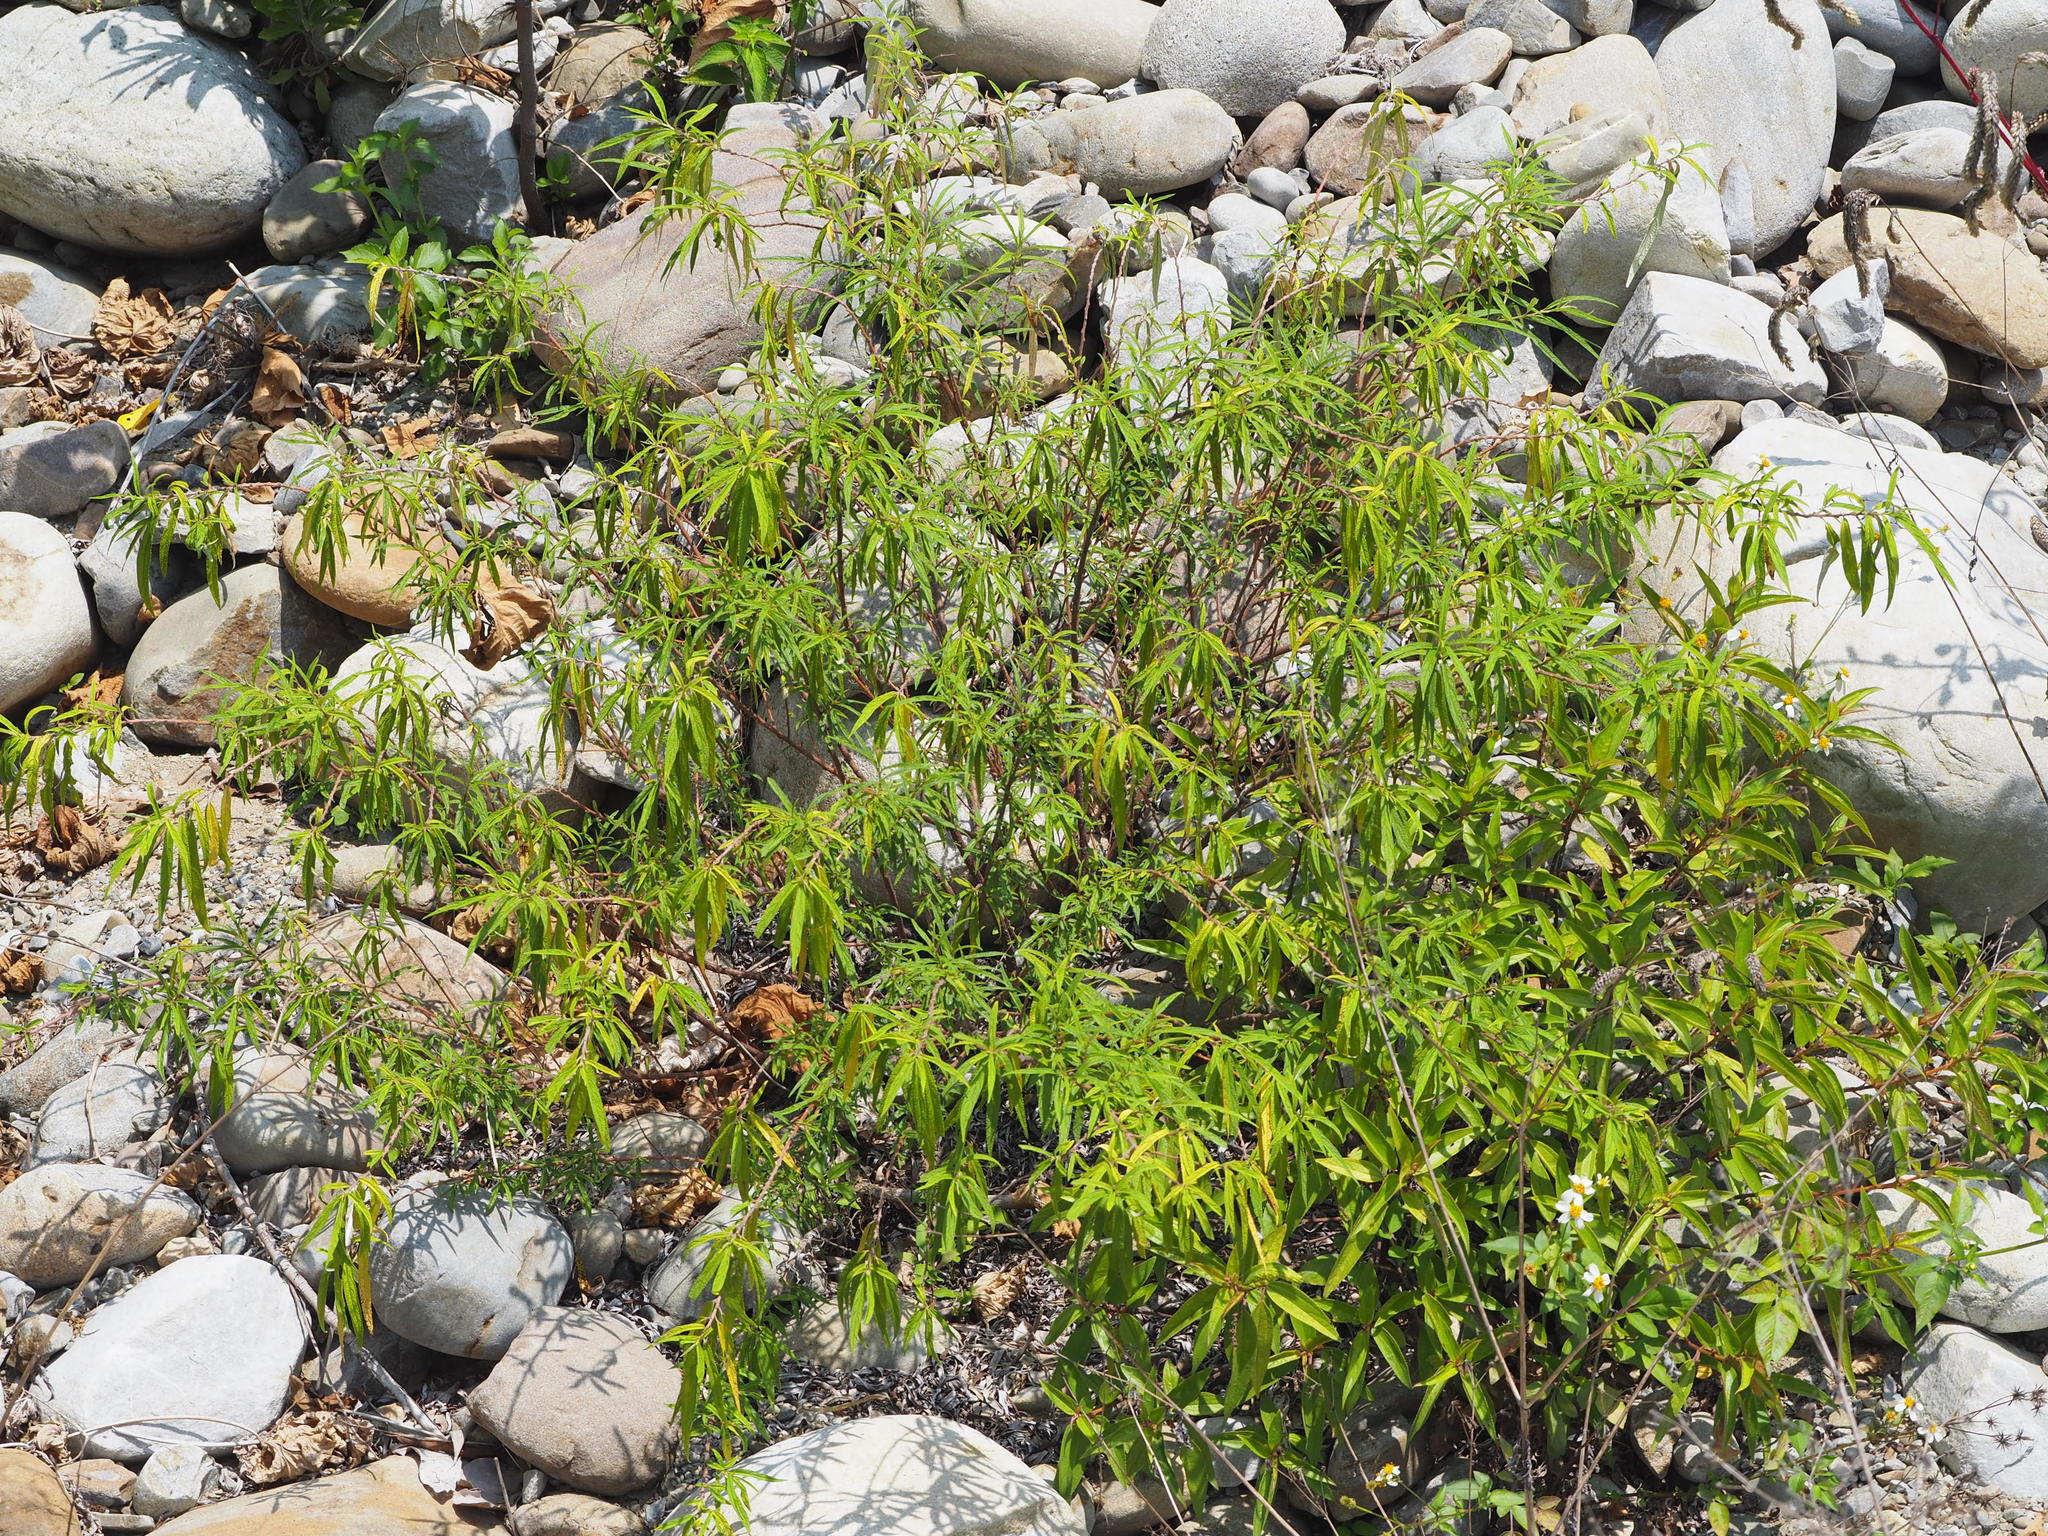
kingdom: Plantae
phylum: Tracheophyta
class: Magnoliopsida
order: Rosales
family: Urticaceae
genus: Debregeasia
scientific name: Debregeasia orientalis
